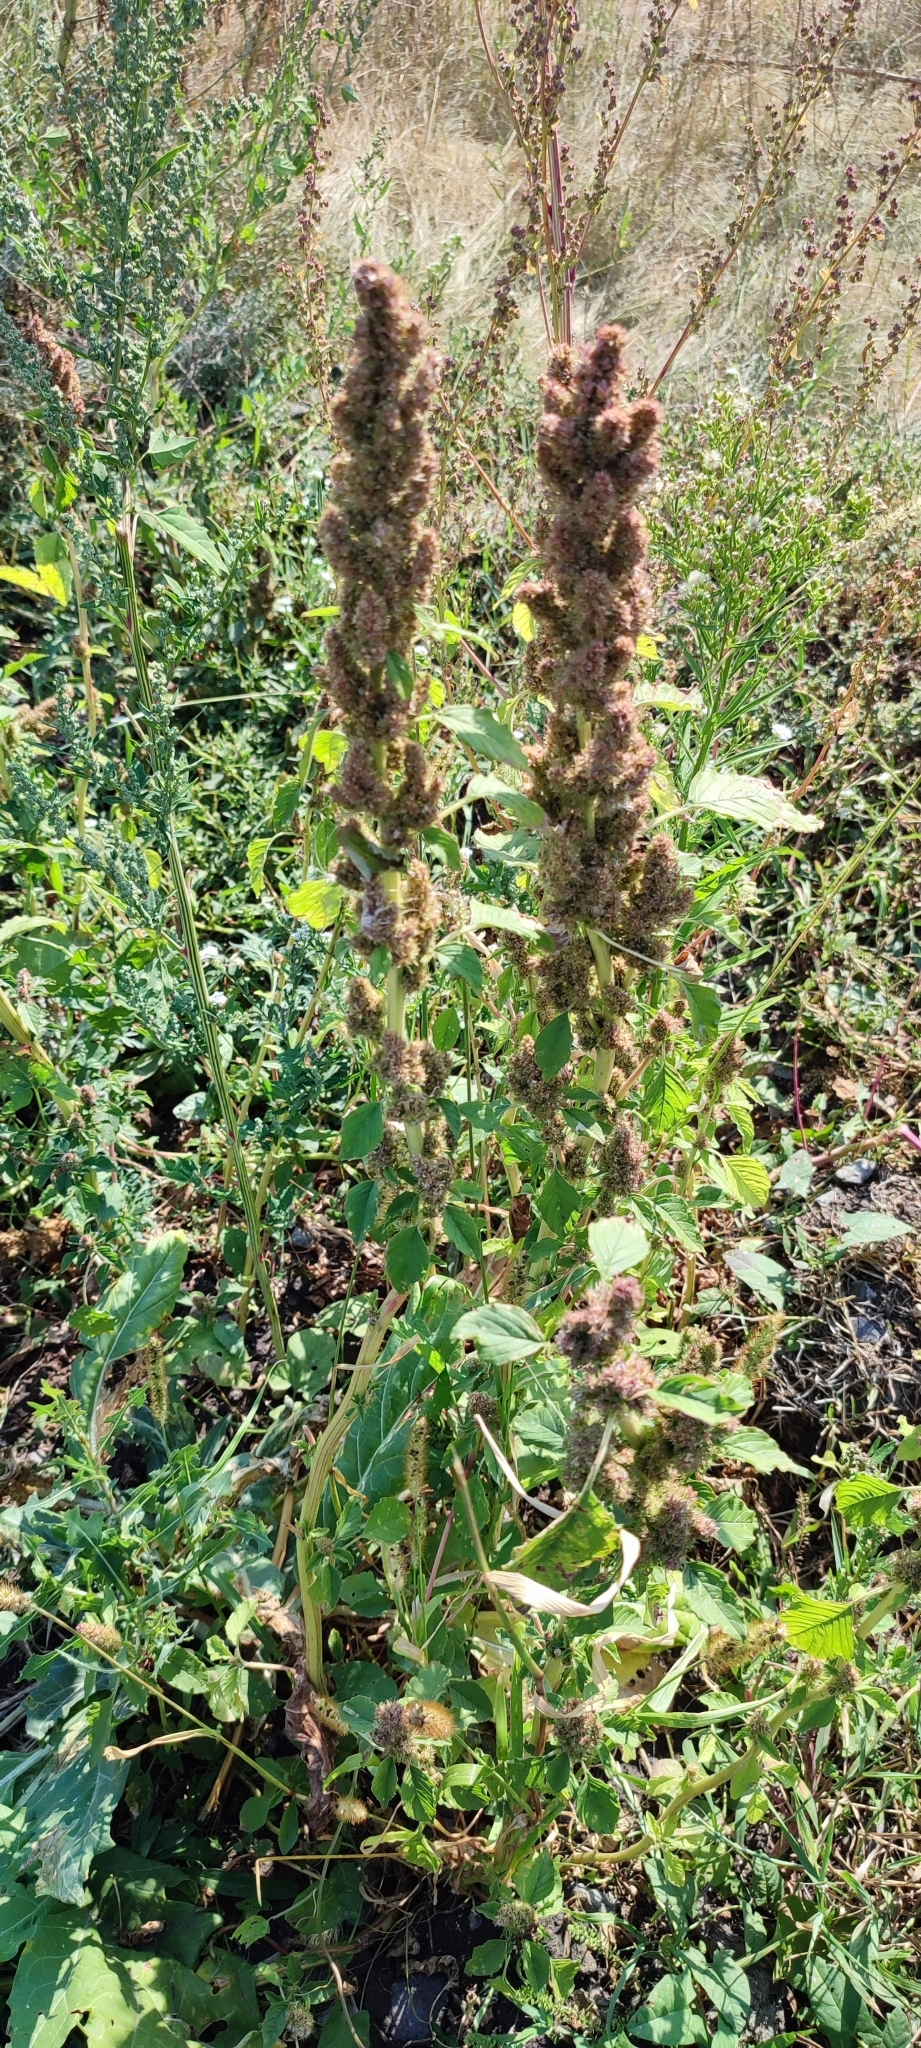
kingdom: Plantae
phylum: Tracheophyta
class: Magnoliopsida
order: Caryophyllales
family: Amaranthaceae
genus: Amaranthus
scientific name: Amaranthus retroflexus
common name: Redroot amaranth
